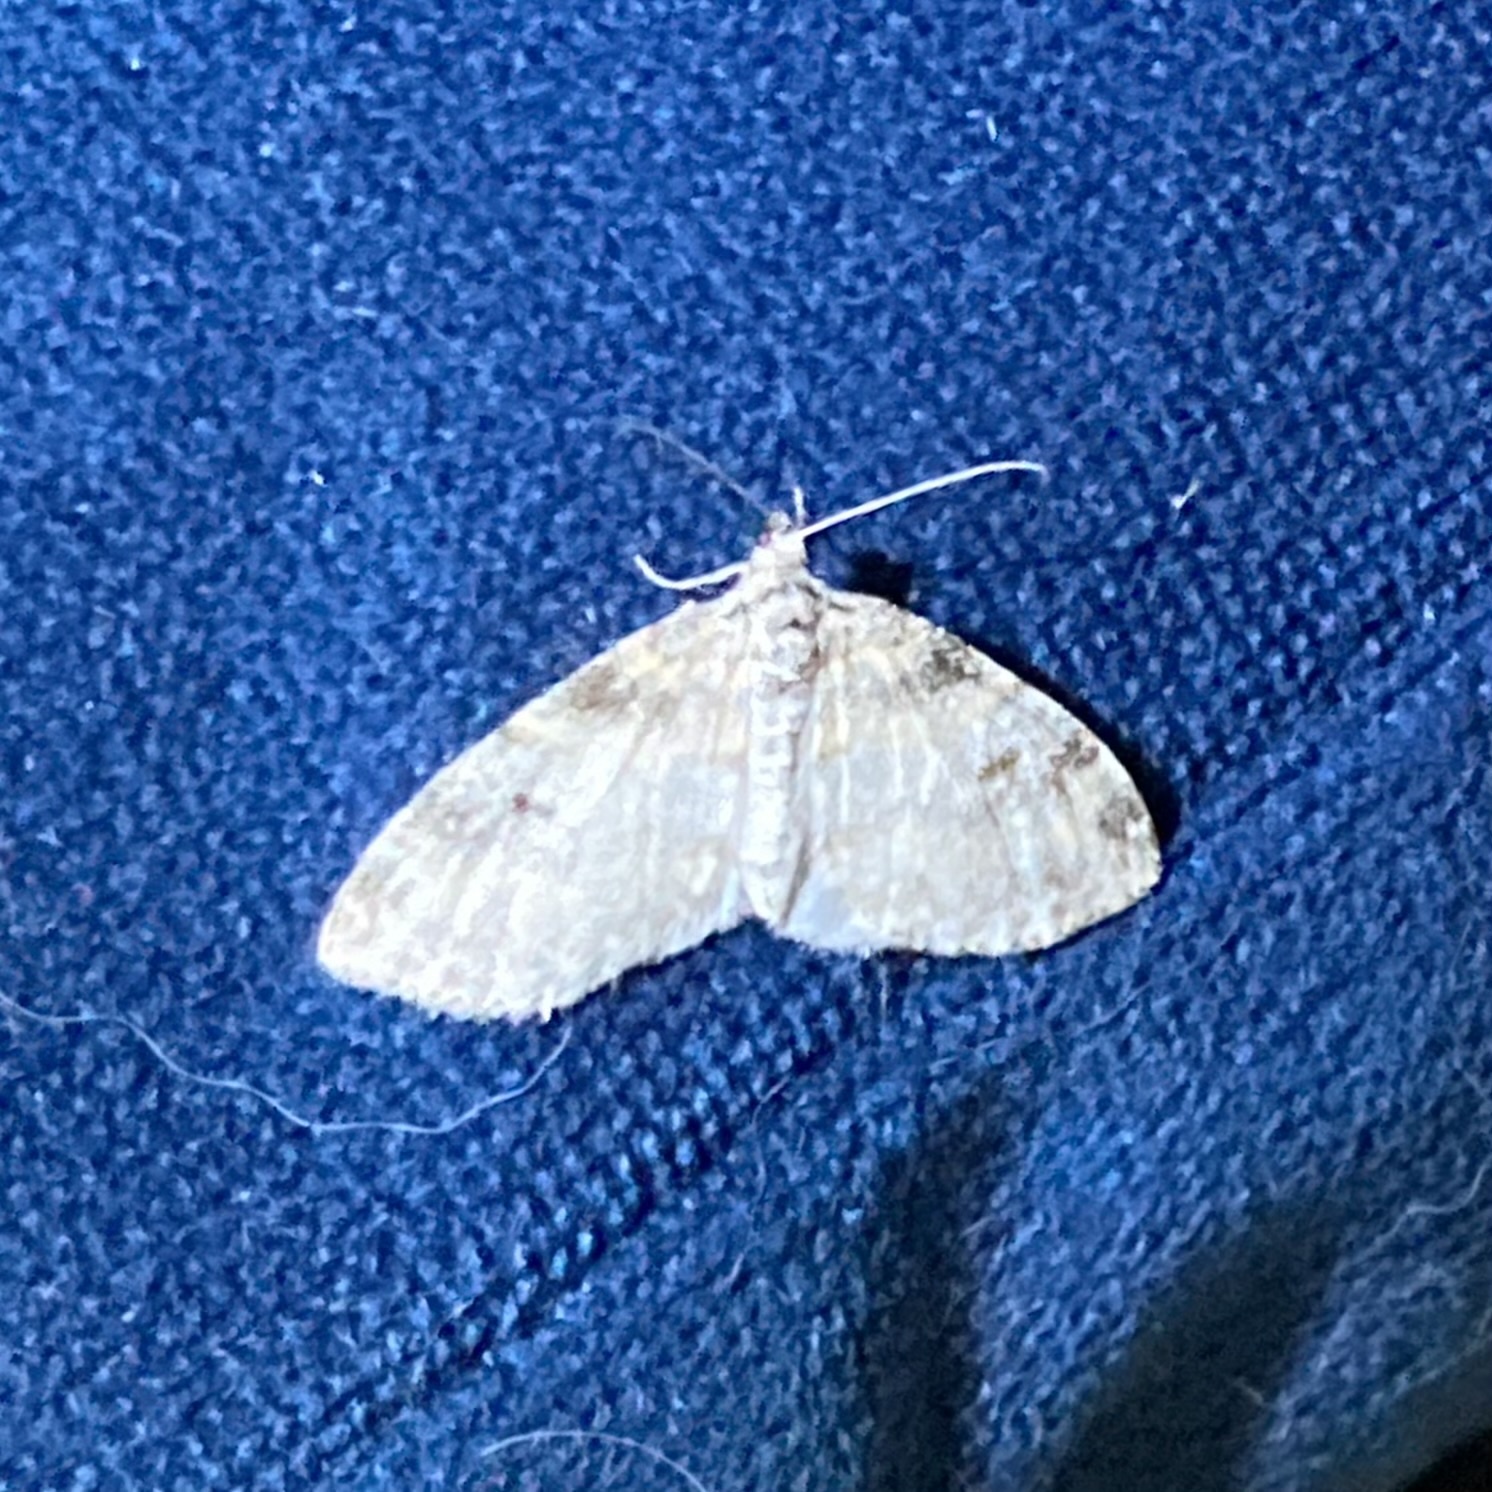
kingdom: Animalia
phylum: Arthropoda
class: Insecta
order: Lepidoptera
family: Geometridae
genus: Lobophora
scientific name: Lobophora nivigerata
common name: Powdered bigwing
